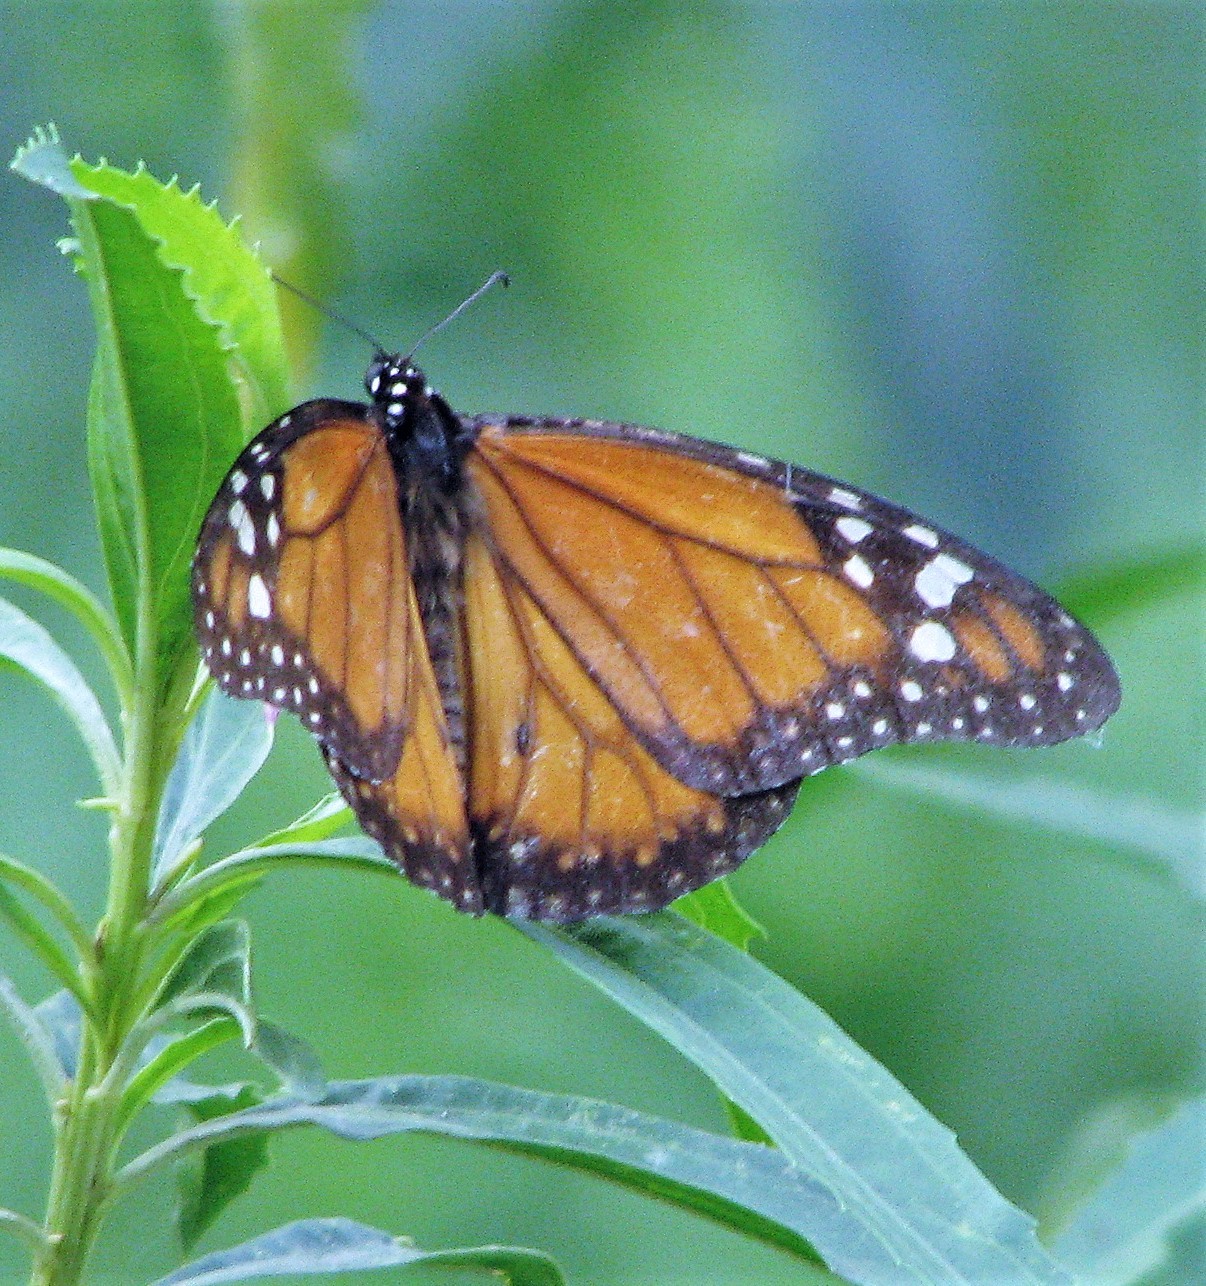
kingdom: Animalia
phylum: Arthropoda
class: Insecta
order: Lepidoptera
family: Nymphalidae
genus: Danaus
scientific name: Danaus erippus
